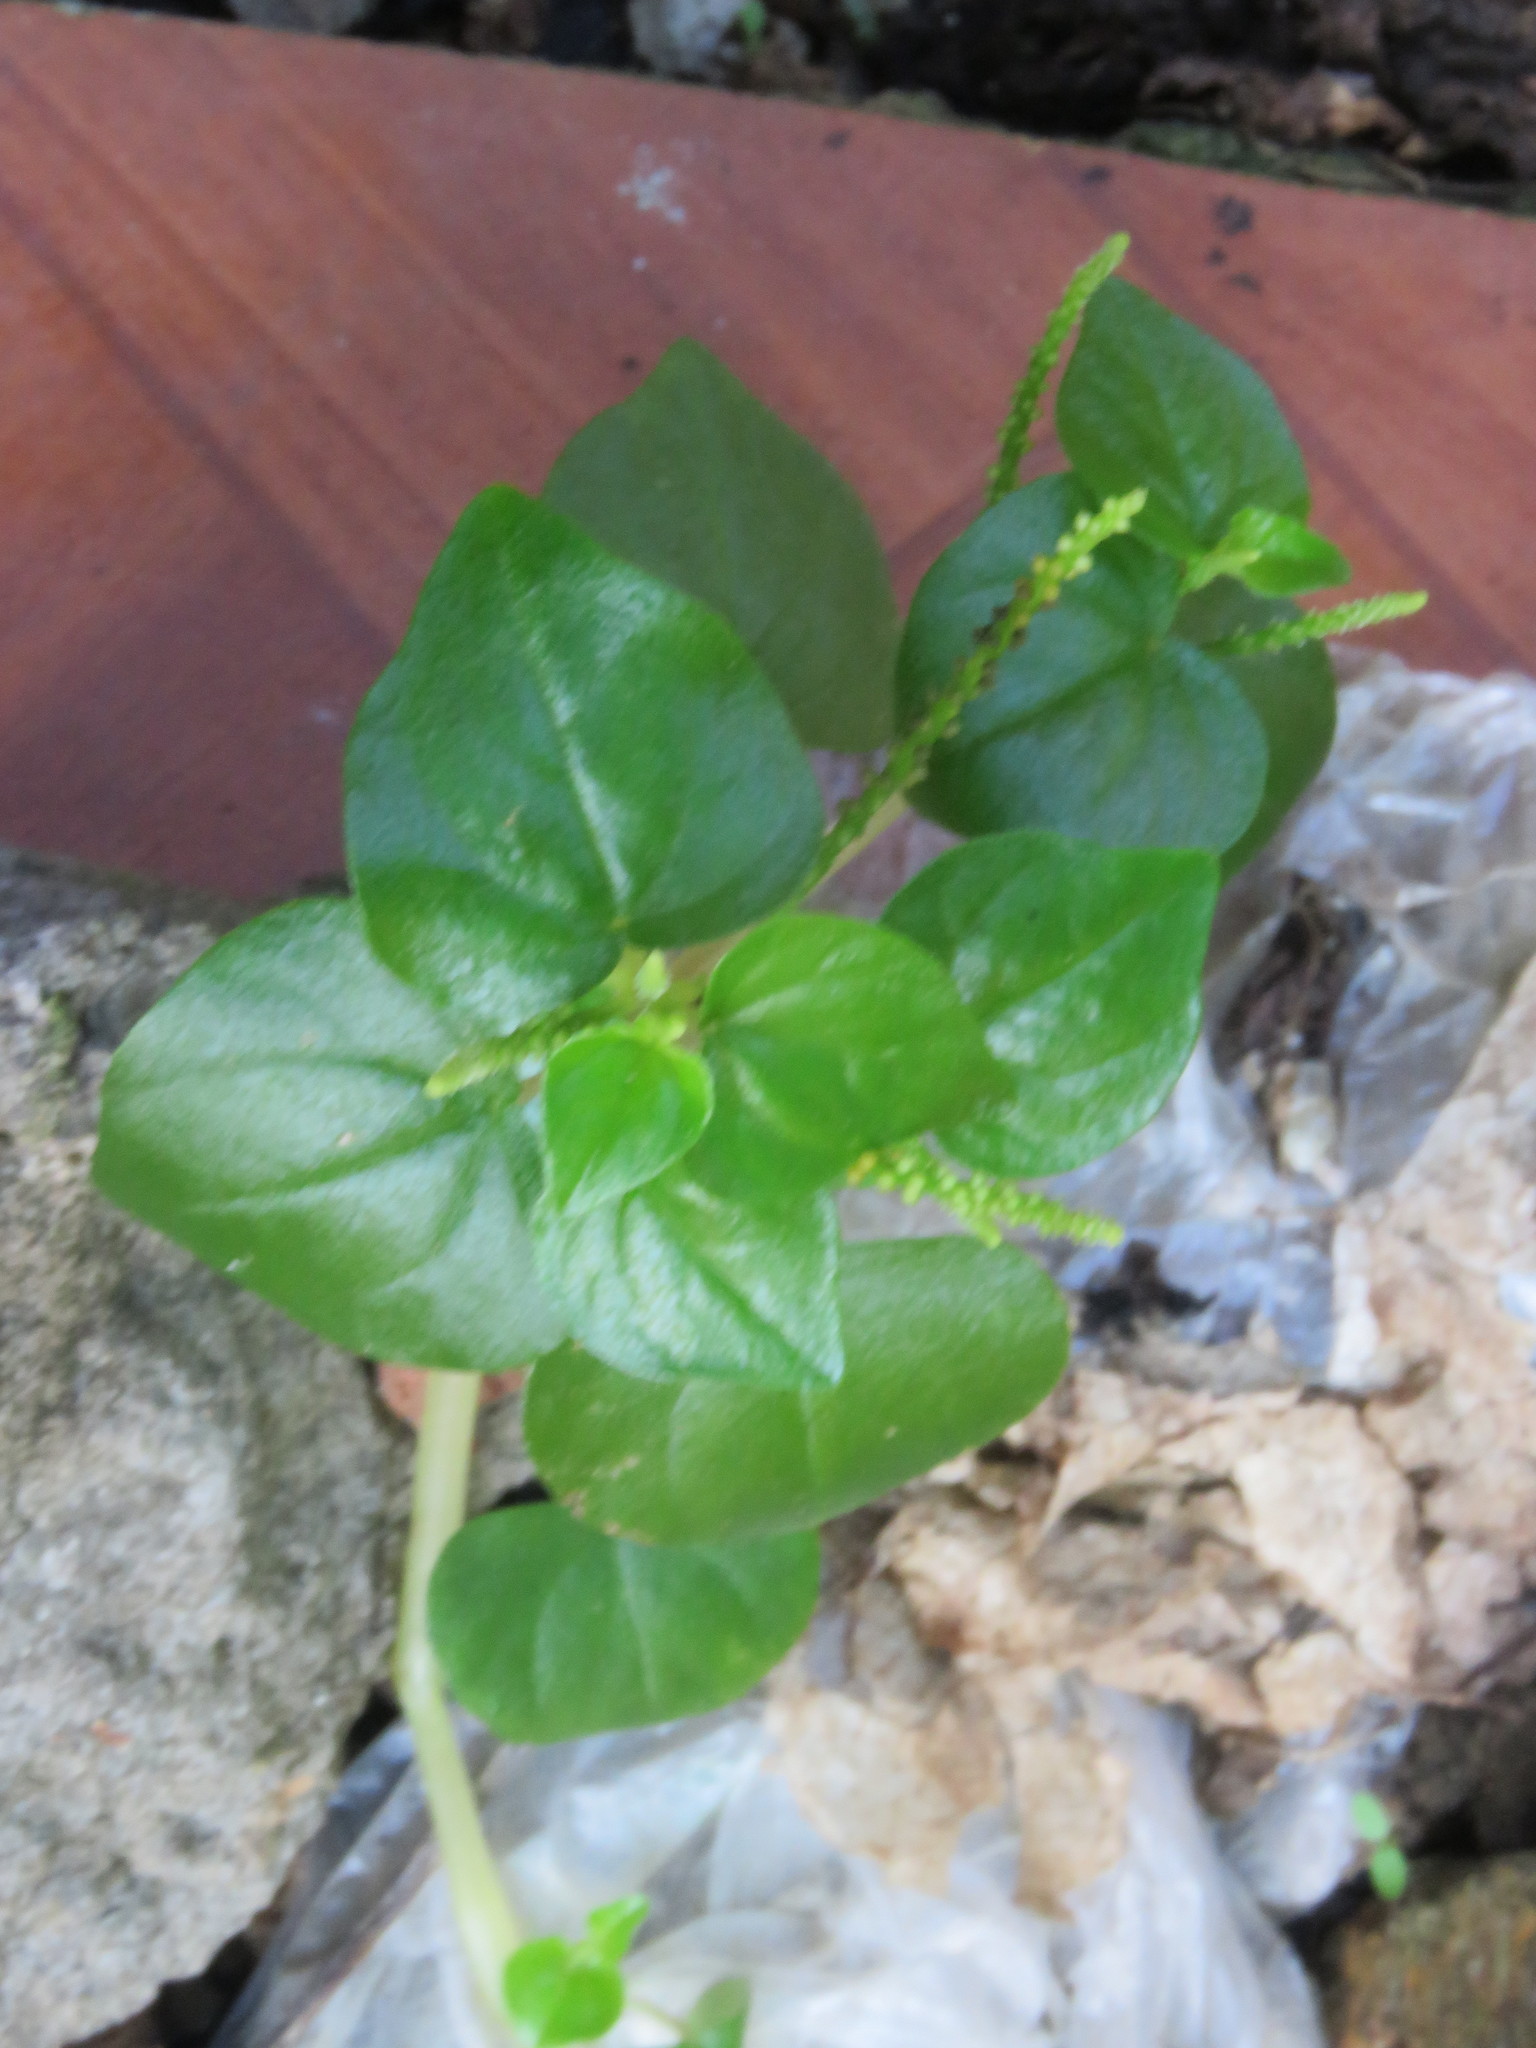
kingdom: Plantae
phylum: Tracheophyta
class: Magnoliopsida
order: Piperales
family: Piperaceae
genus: Peperomia
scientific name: Peperomia pellucida
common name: Man to man
